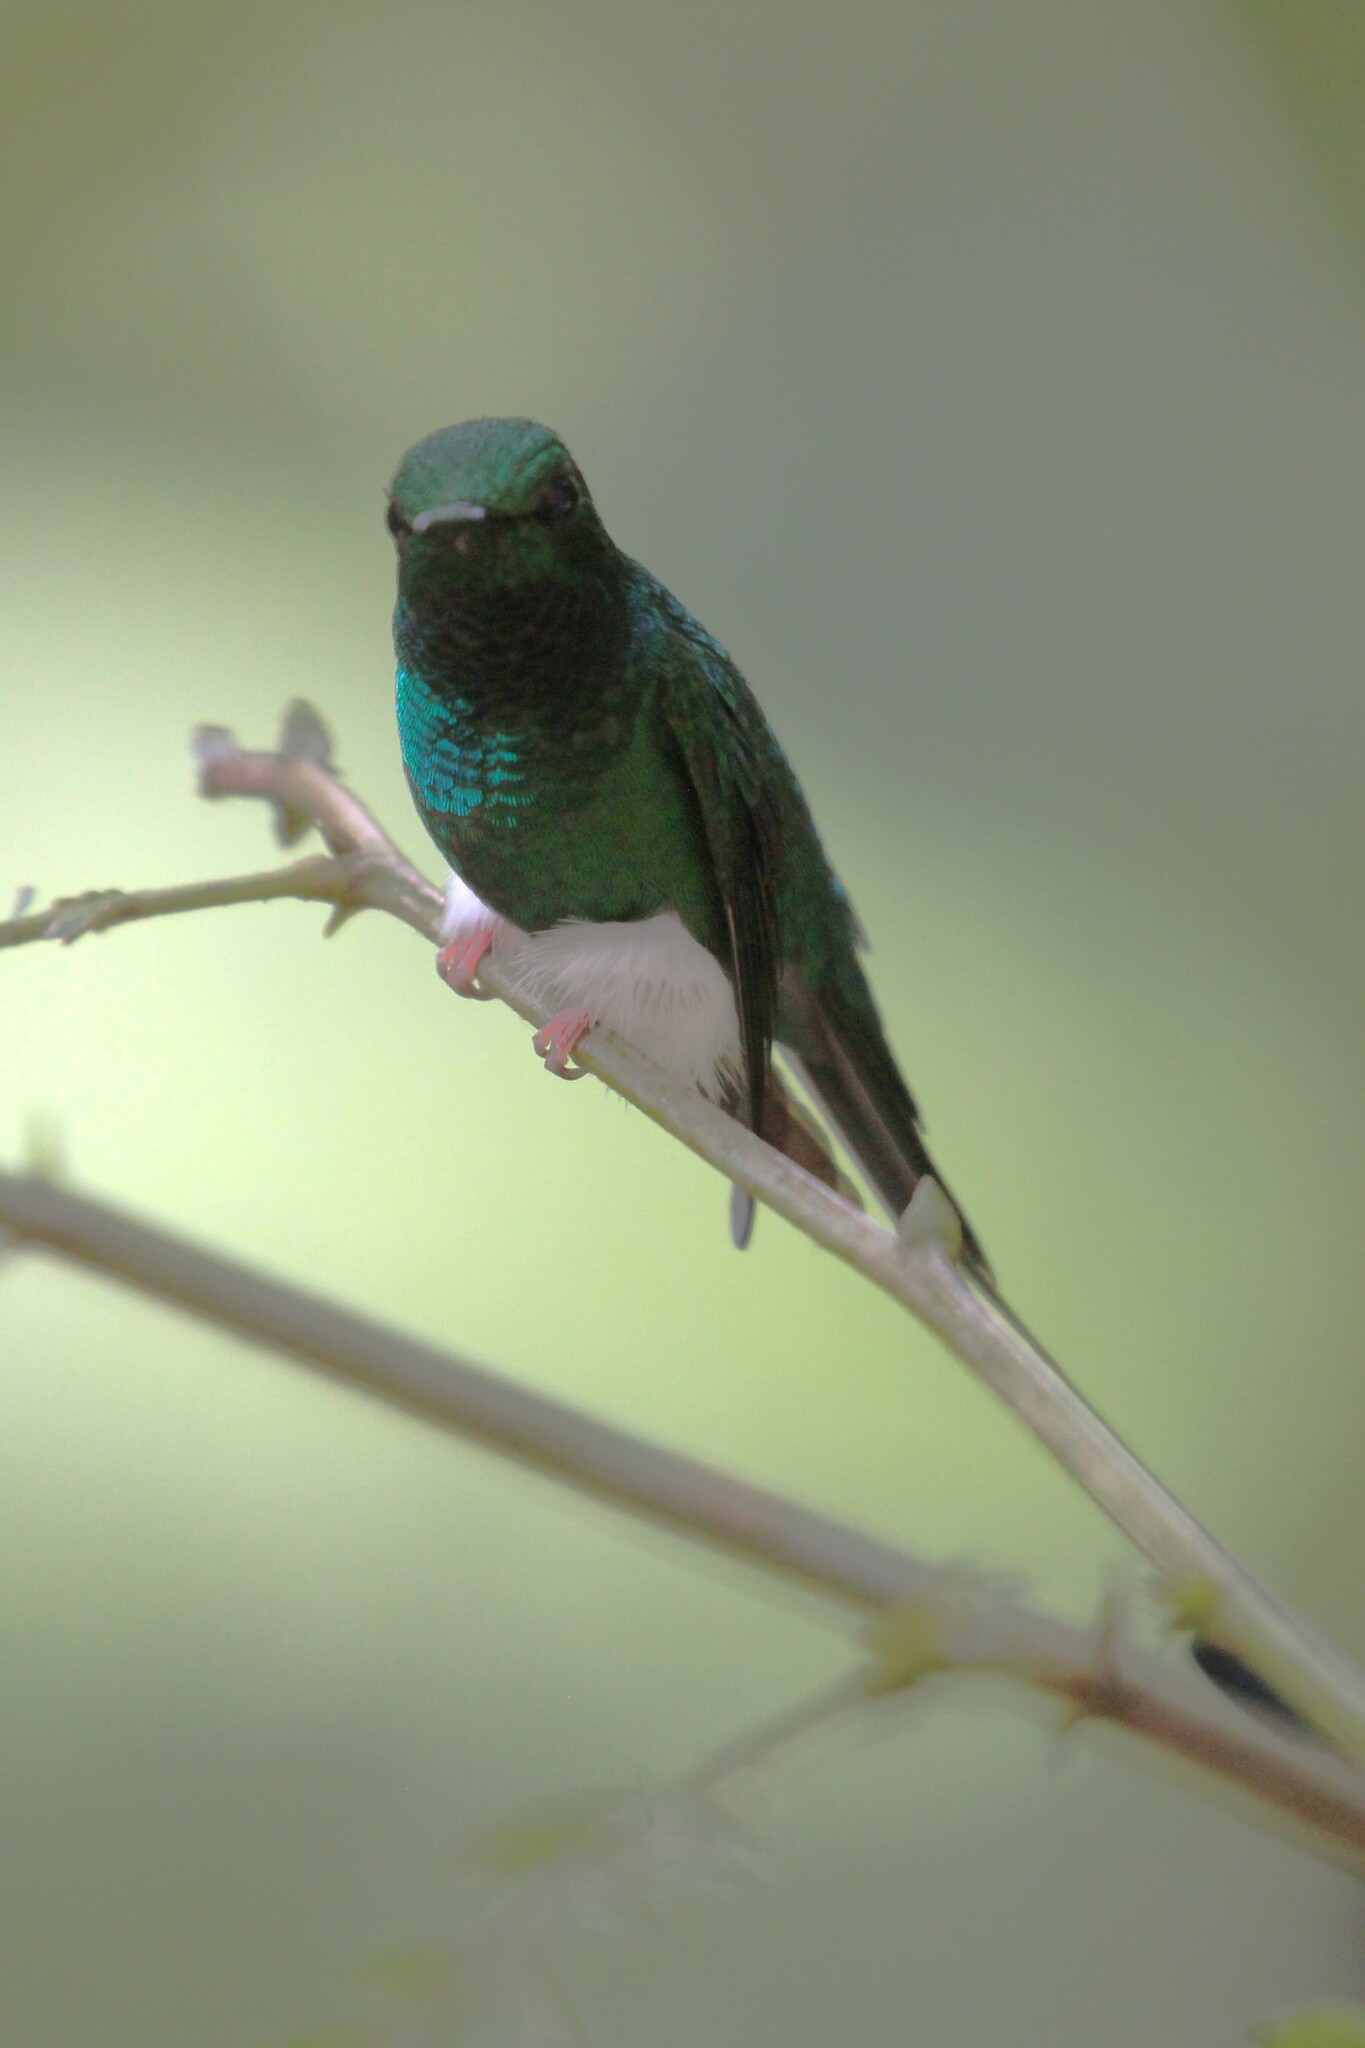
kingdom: Animalia
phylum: Chordata
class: Aves
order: Apodiformes
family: Trochilidae
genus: Ocreatus
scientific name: Ocreatus underwoodii
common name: Booted racket-tail
